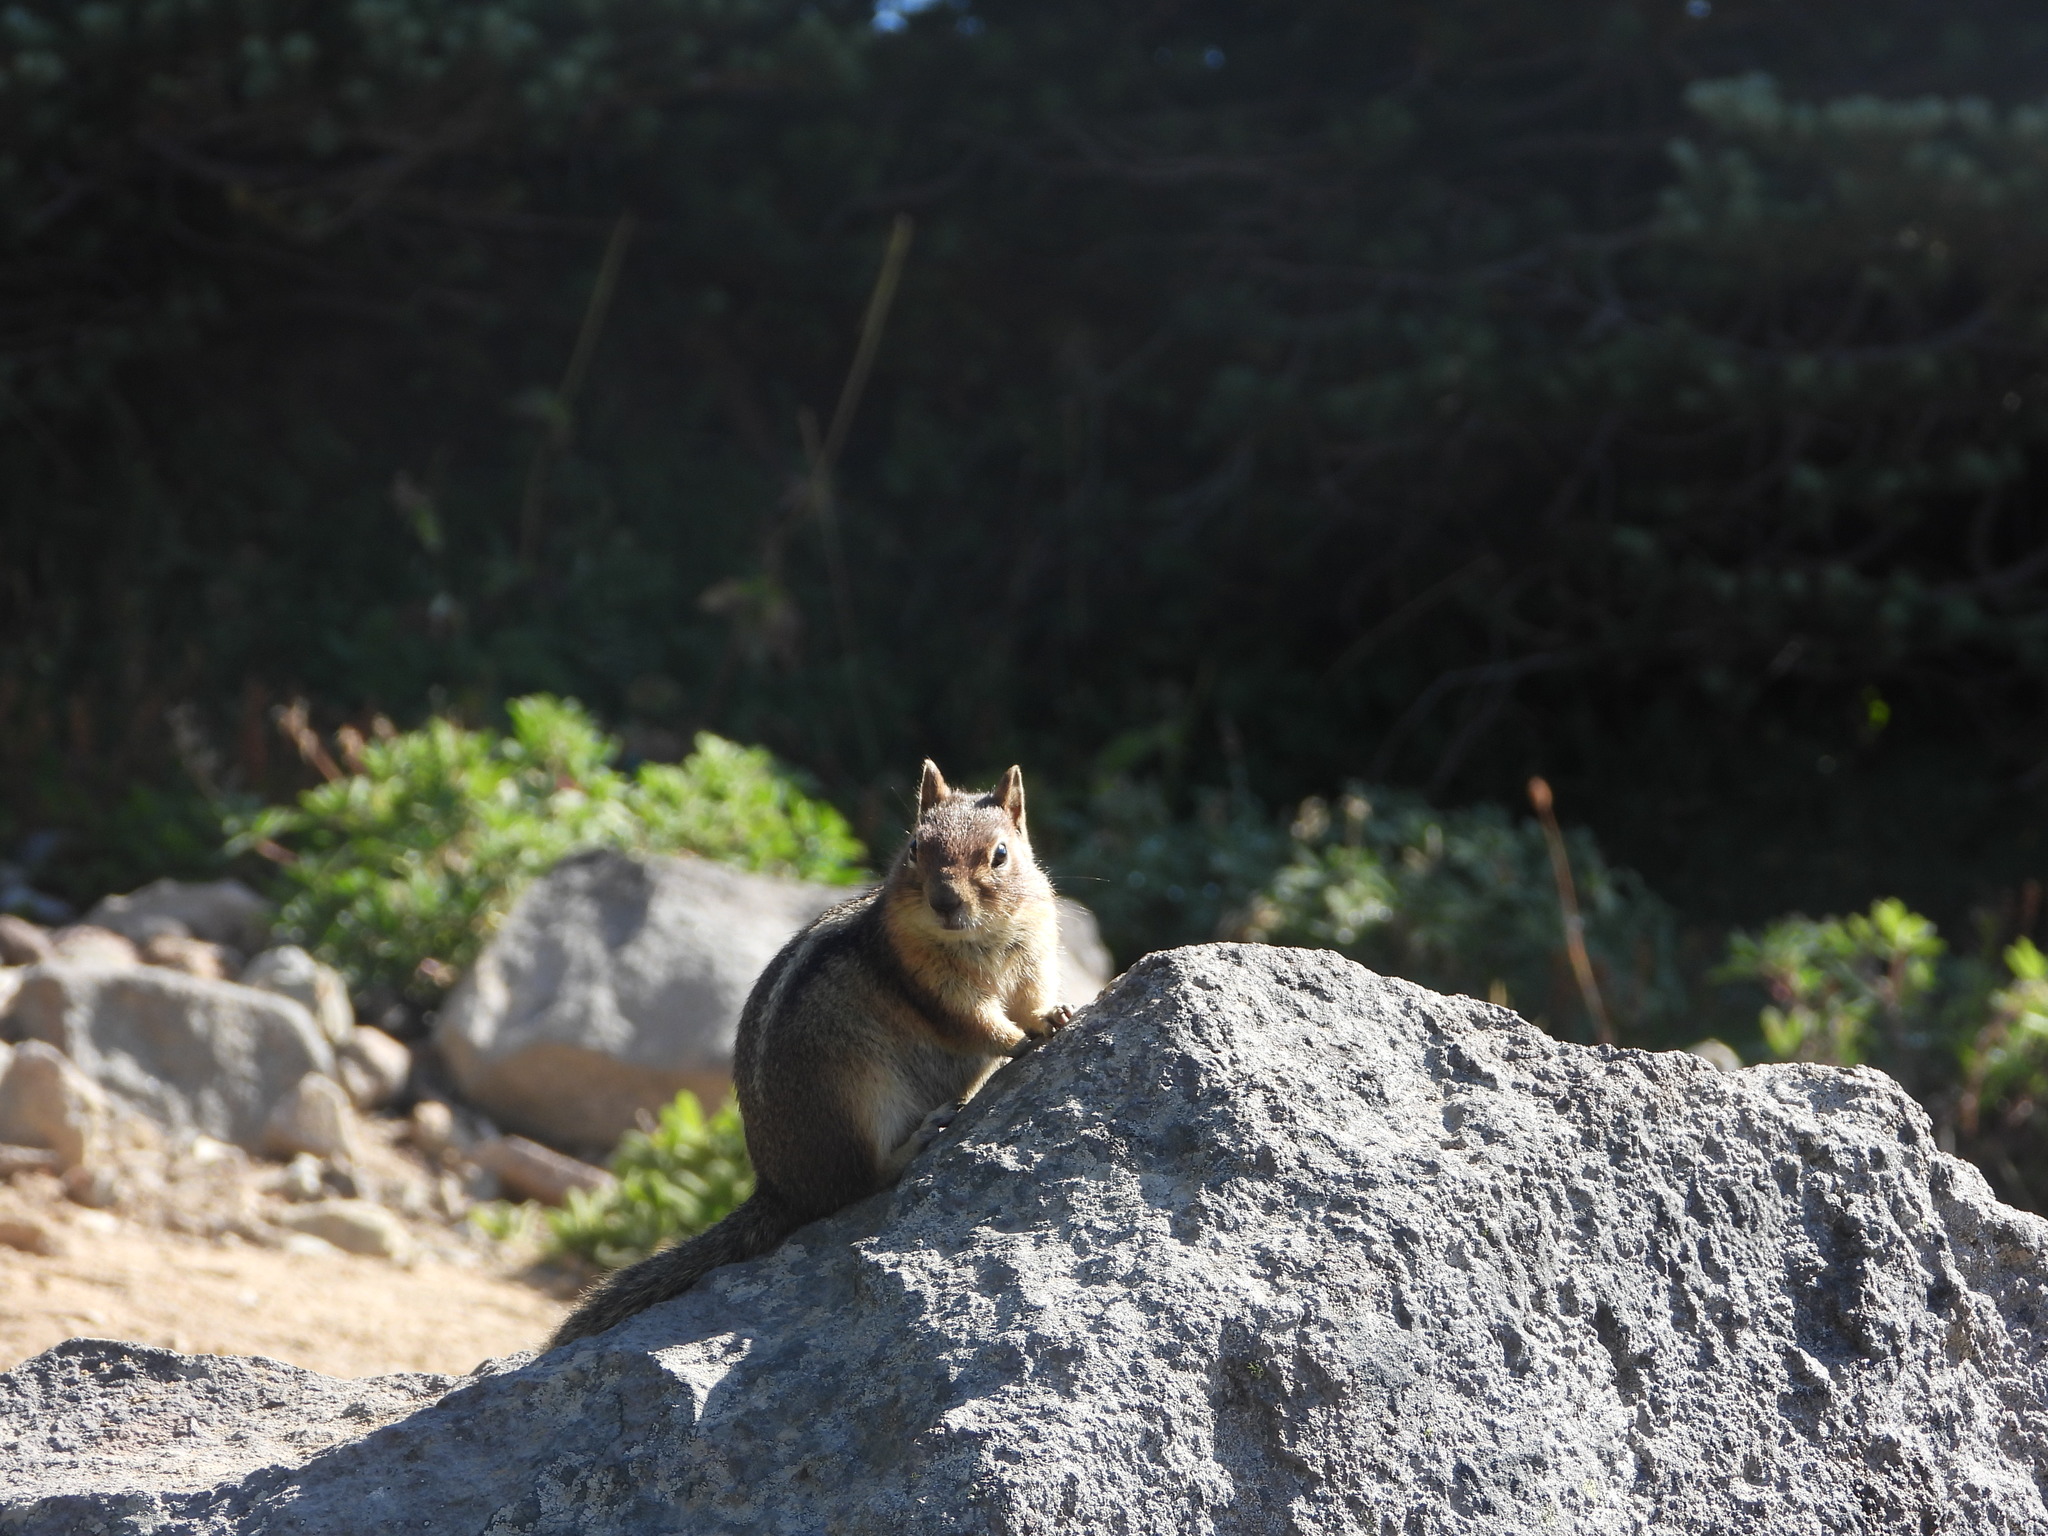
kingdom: Animalia
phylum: Chordata
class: Mammalia
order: Rodentia
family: Sciuridae
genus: Callospermophilus
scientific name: Callospermophilus saturatus
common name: Cascade golden-mantled ground squirrel
